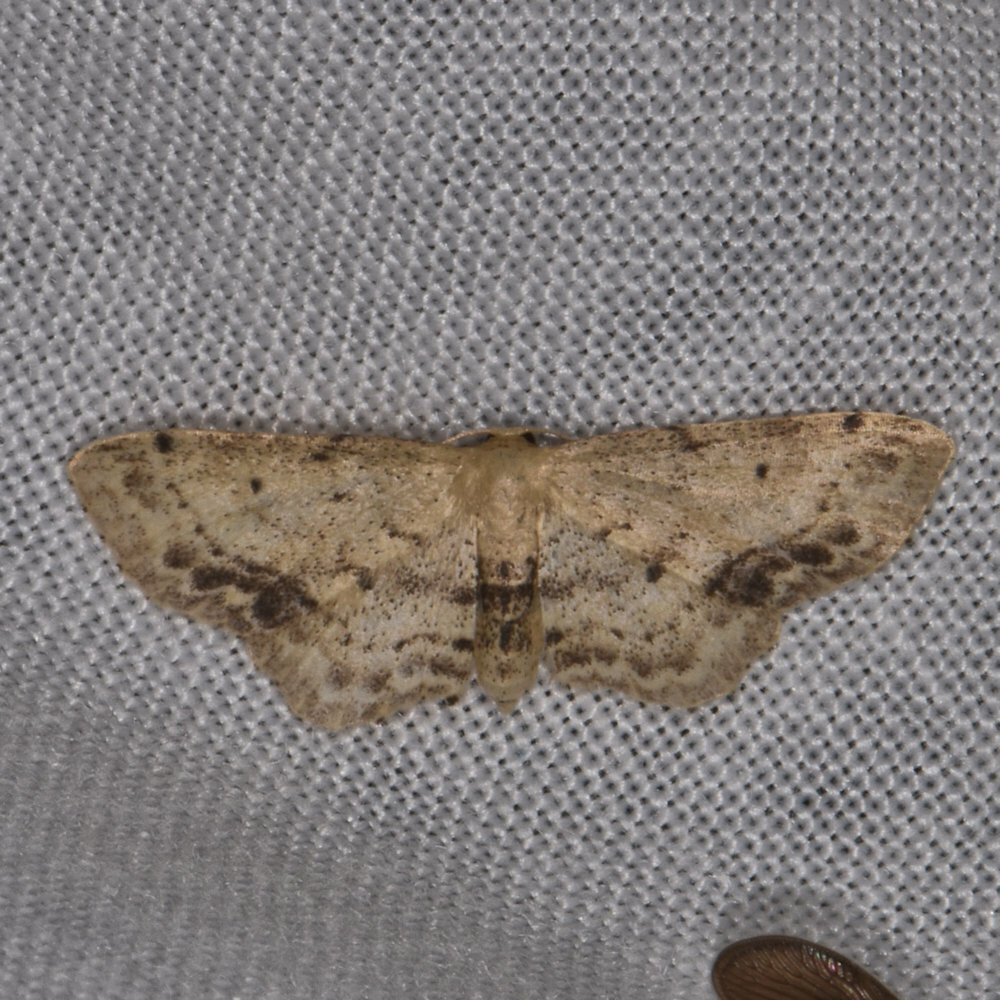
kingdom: Animalia
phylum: Arthropoda
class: Insecta
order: Lepidoptera
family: Geometridae
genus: Idaea
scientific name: Idaea dimidiata
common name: Single-dotted wave
